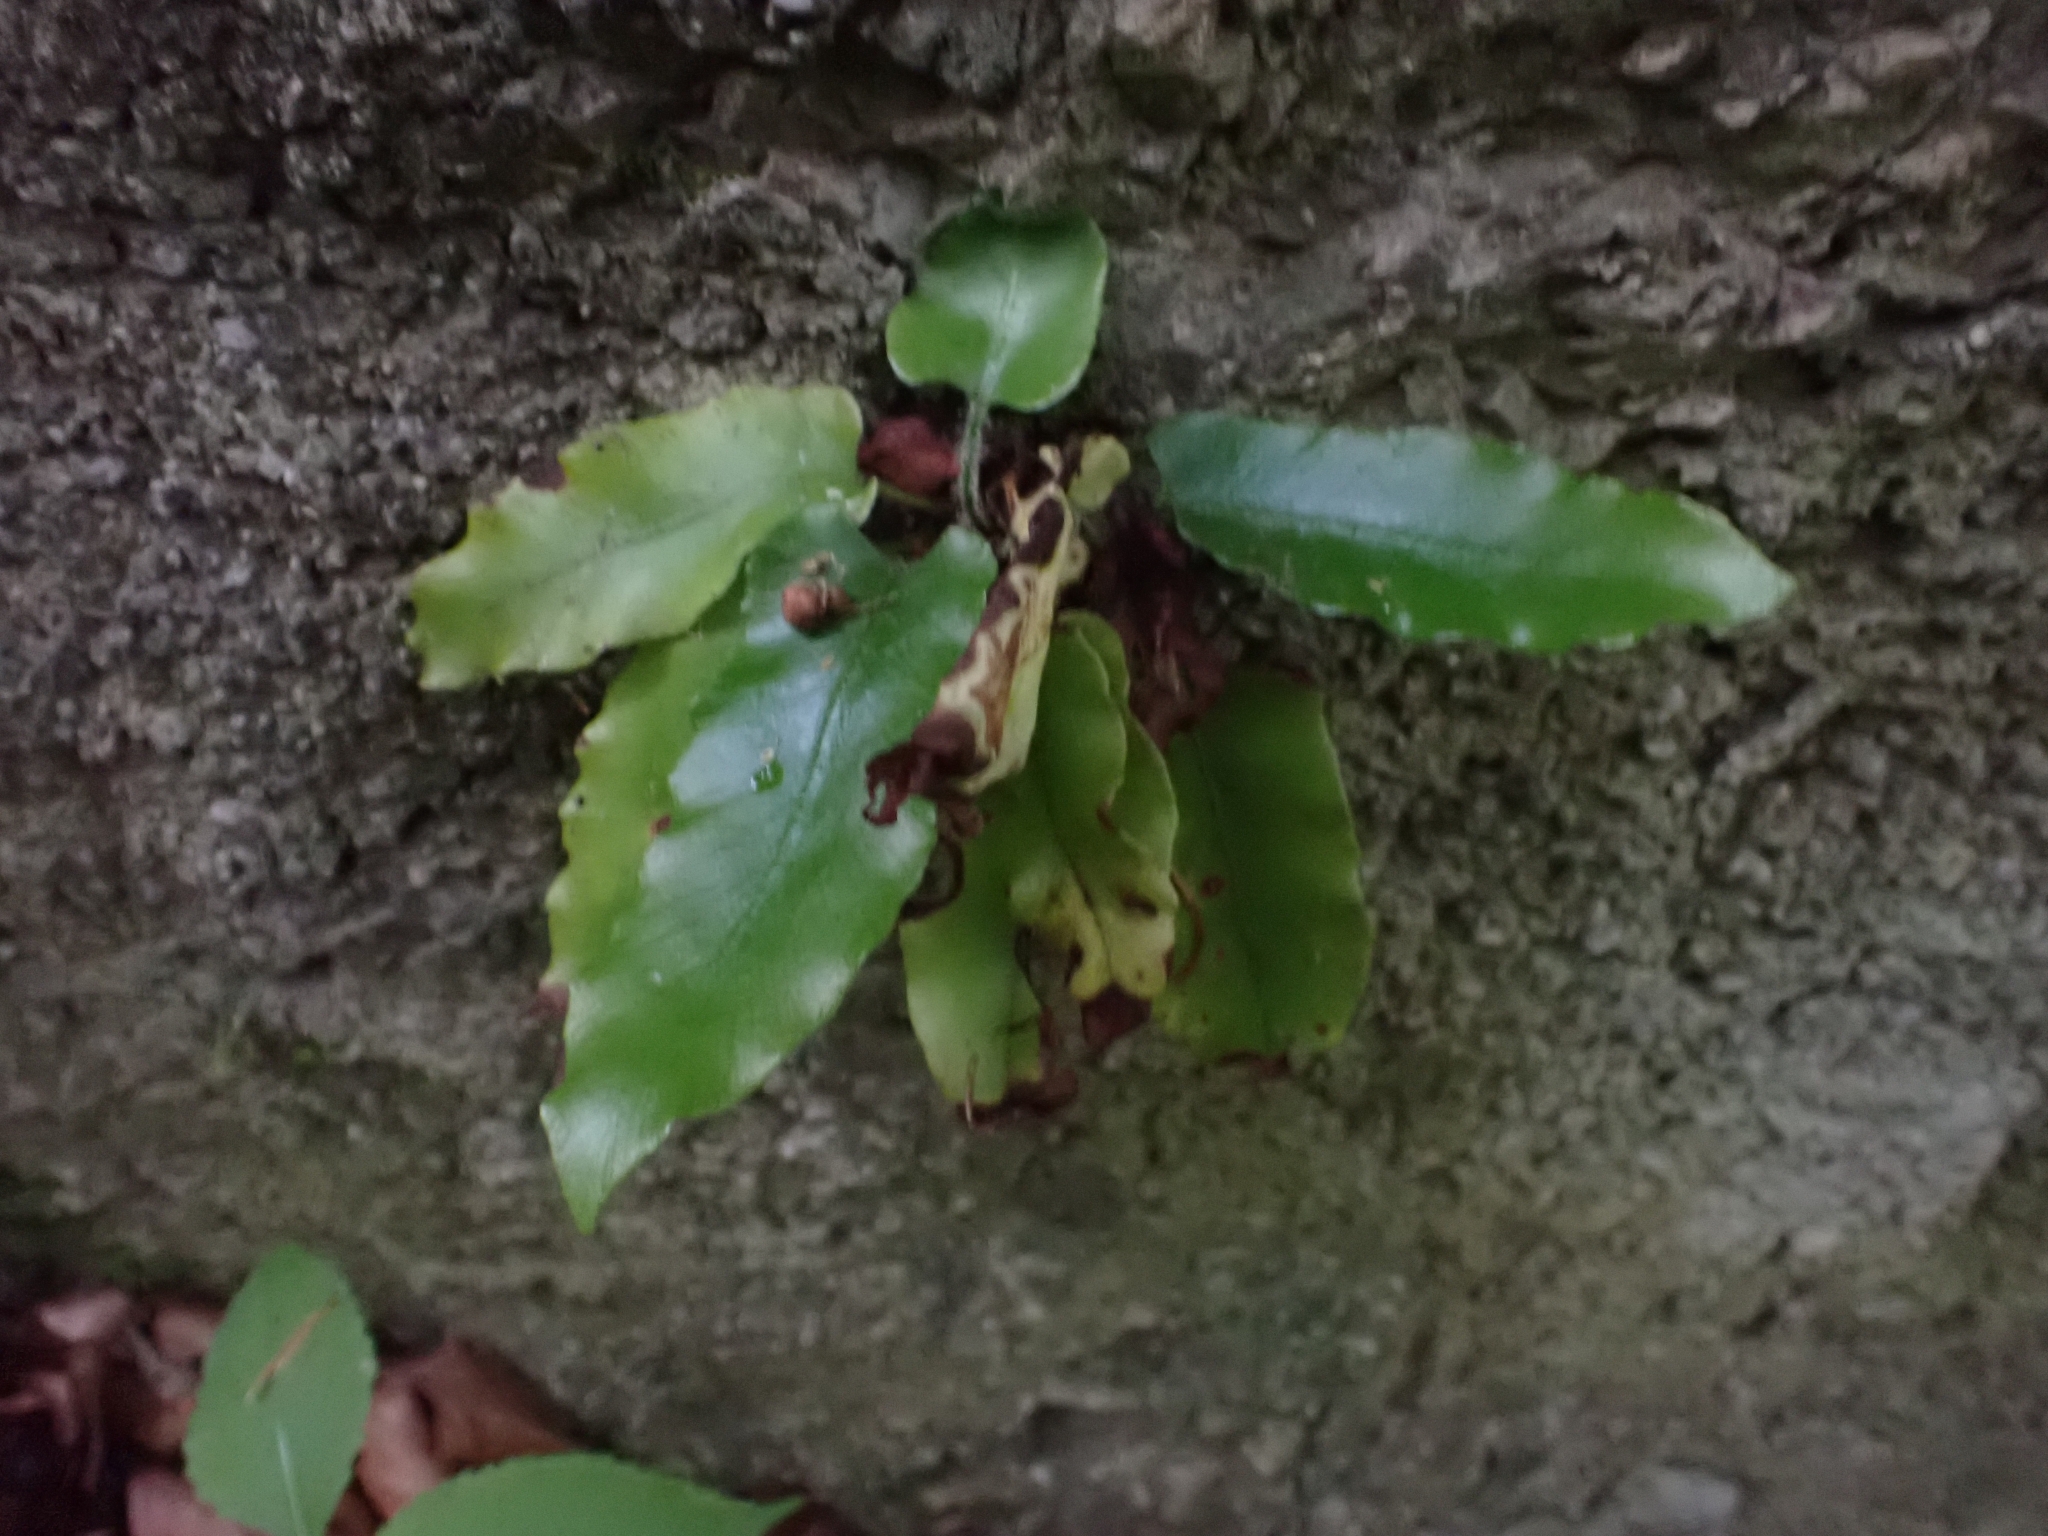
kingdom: Plantae
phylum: Tracheophyta
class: Polypodiopsida
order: Polypodiales
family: Aspleniaceae
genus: Asplenium
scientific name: Asplenium scolopendrium
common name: Hart's-tongue fern
